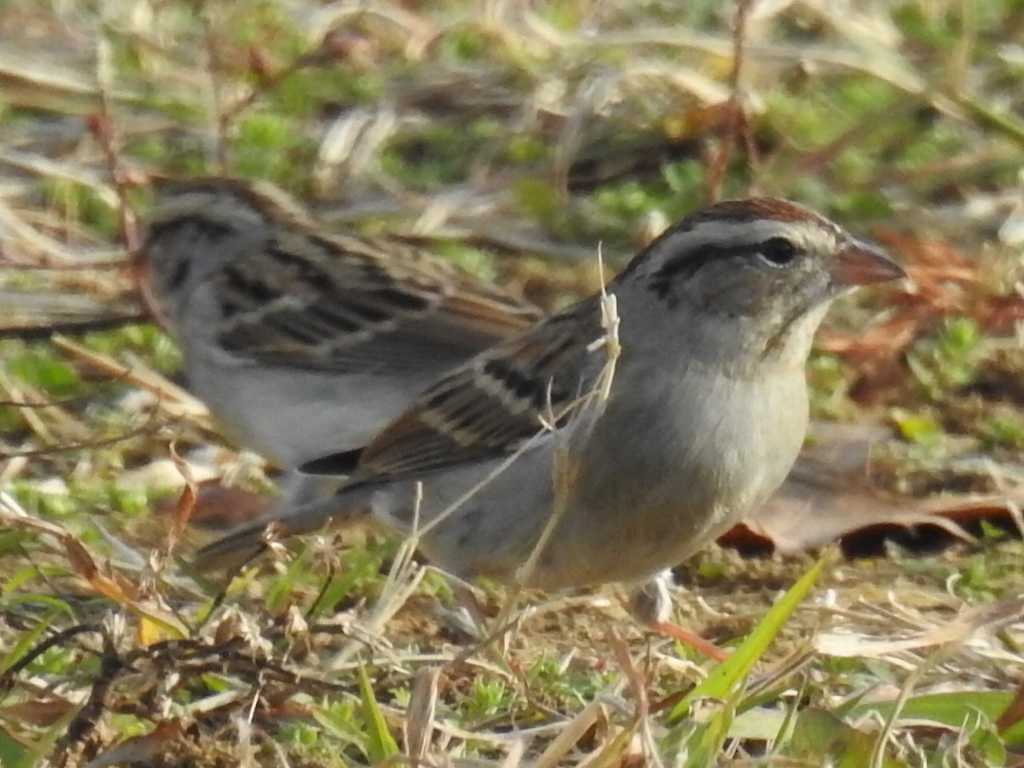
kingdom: Animalia
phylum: Chordata
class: Aves
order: Passeriformes
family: Passerellidae
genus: Spizella
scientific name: Spizella passerina
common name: Chipping sparrow
